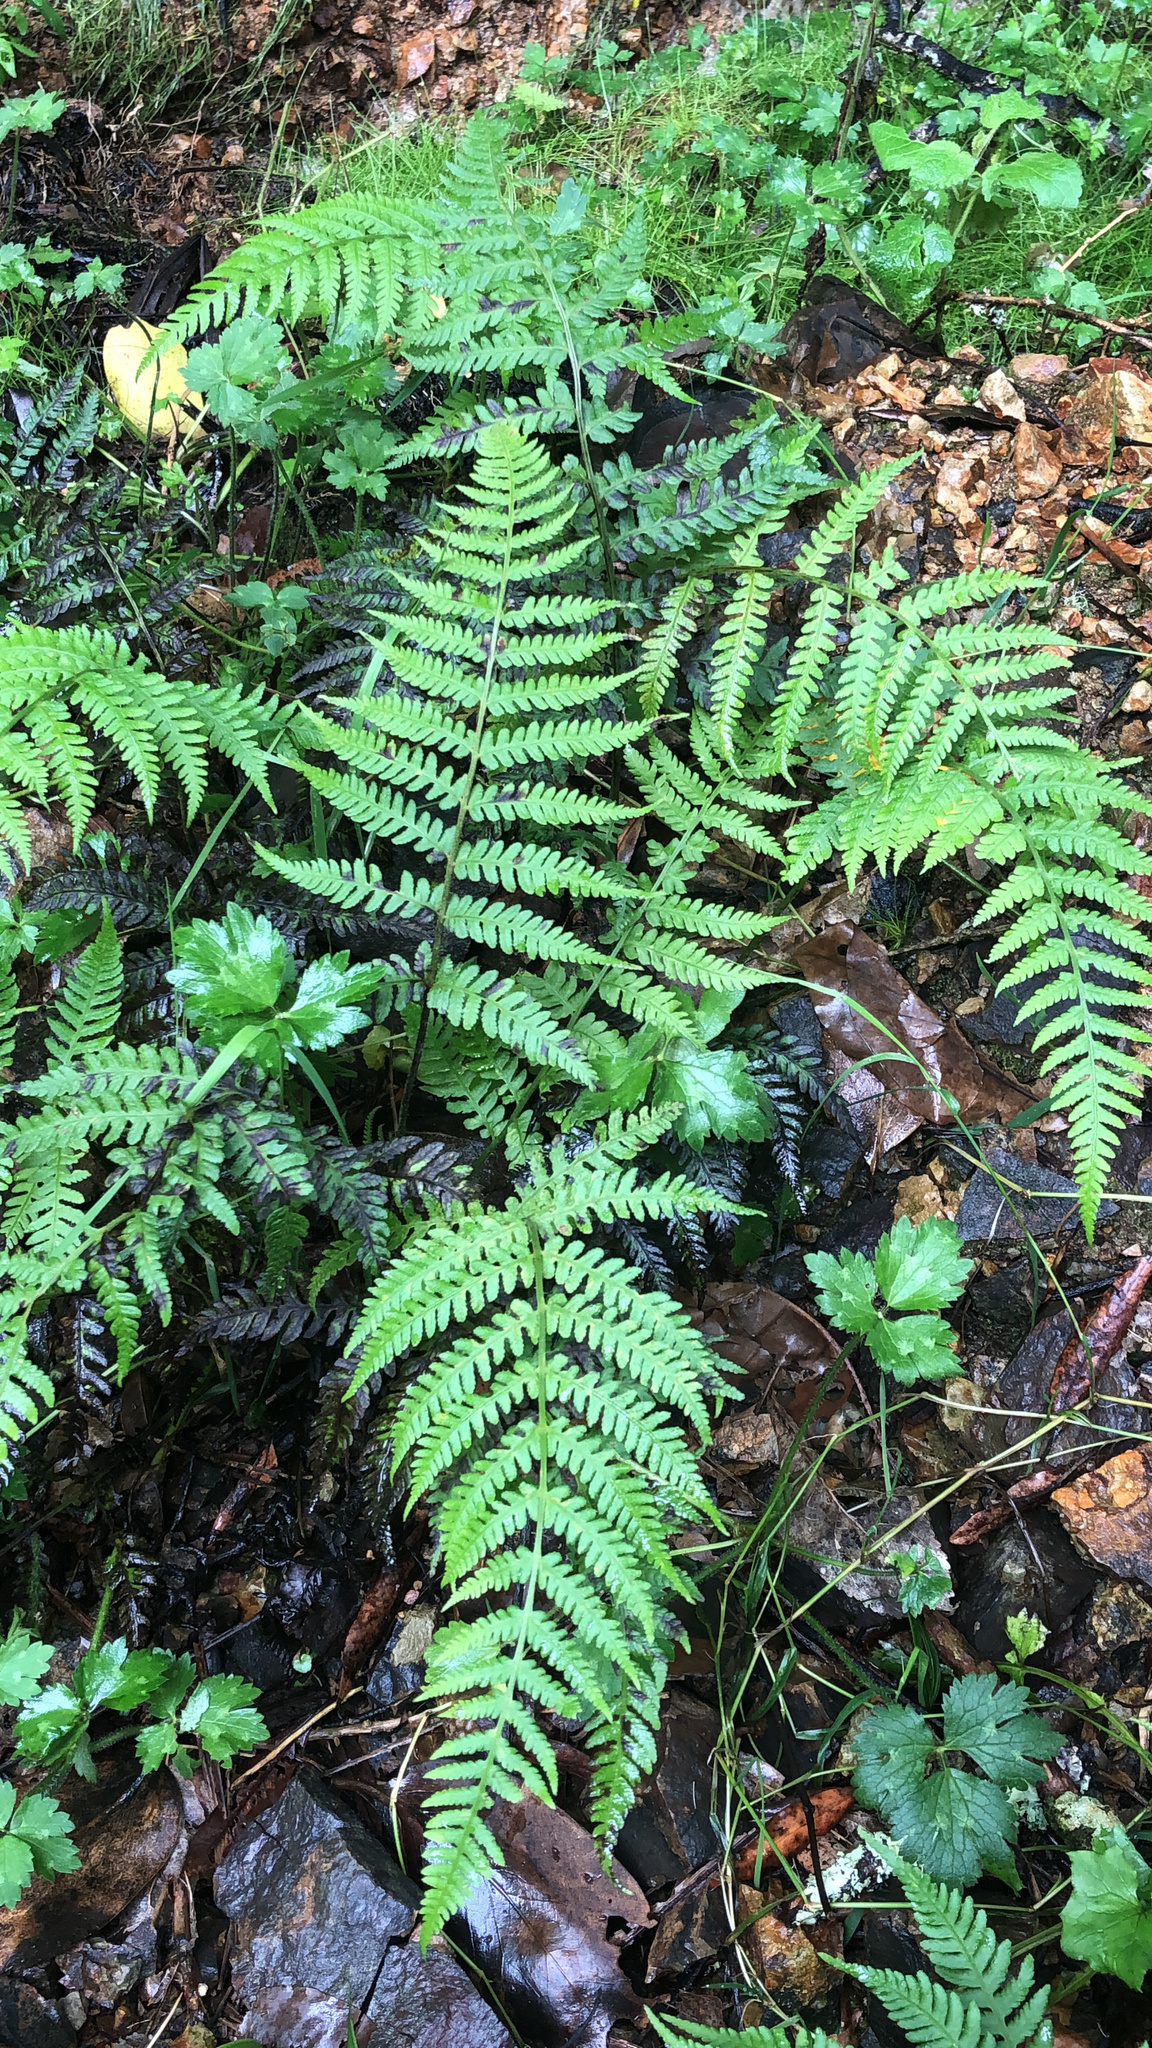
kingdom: Plantae
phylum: Tracheophyta
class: Polypodiopsida
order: Polypodiales
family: Athyriaceae
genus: Deparia
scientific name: Deparia petersenii
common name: Japanese false spleenwort
